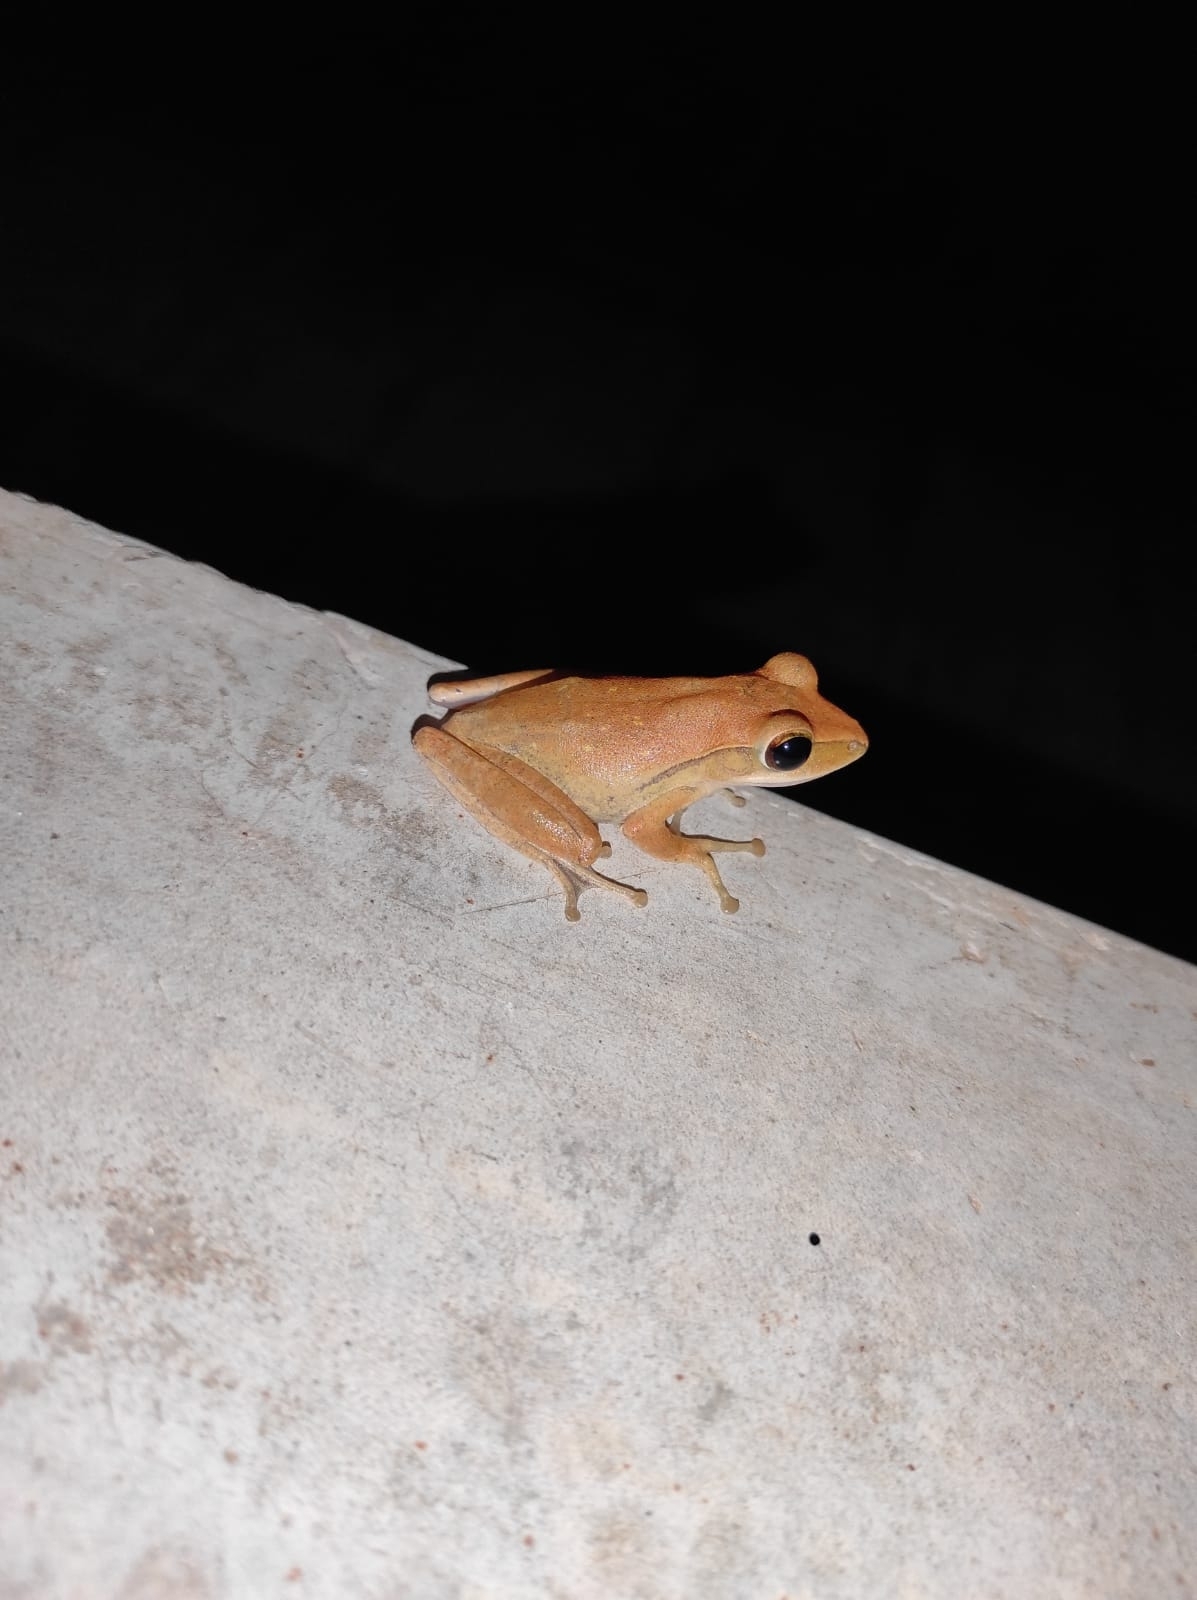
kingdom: Animalia
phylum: Chordata
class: Amphibia
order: Anura
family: Rhacophoridae
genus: Polypedates
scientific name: Polypedates leucomystax
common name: Common tree frog/four-lined tree frog
